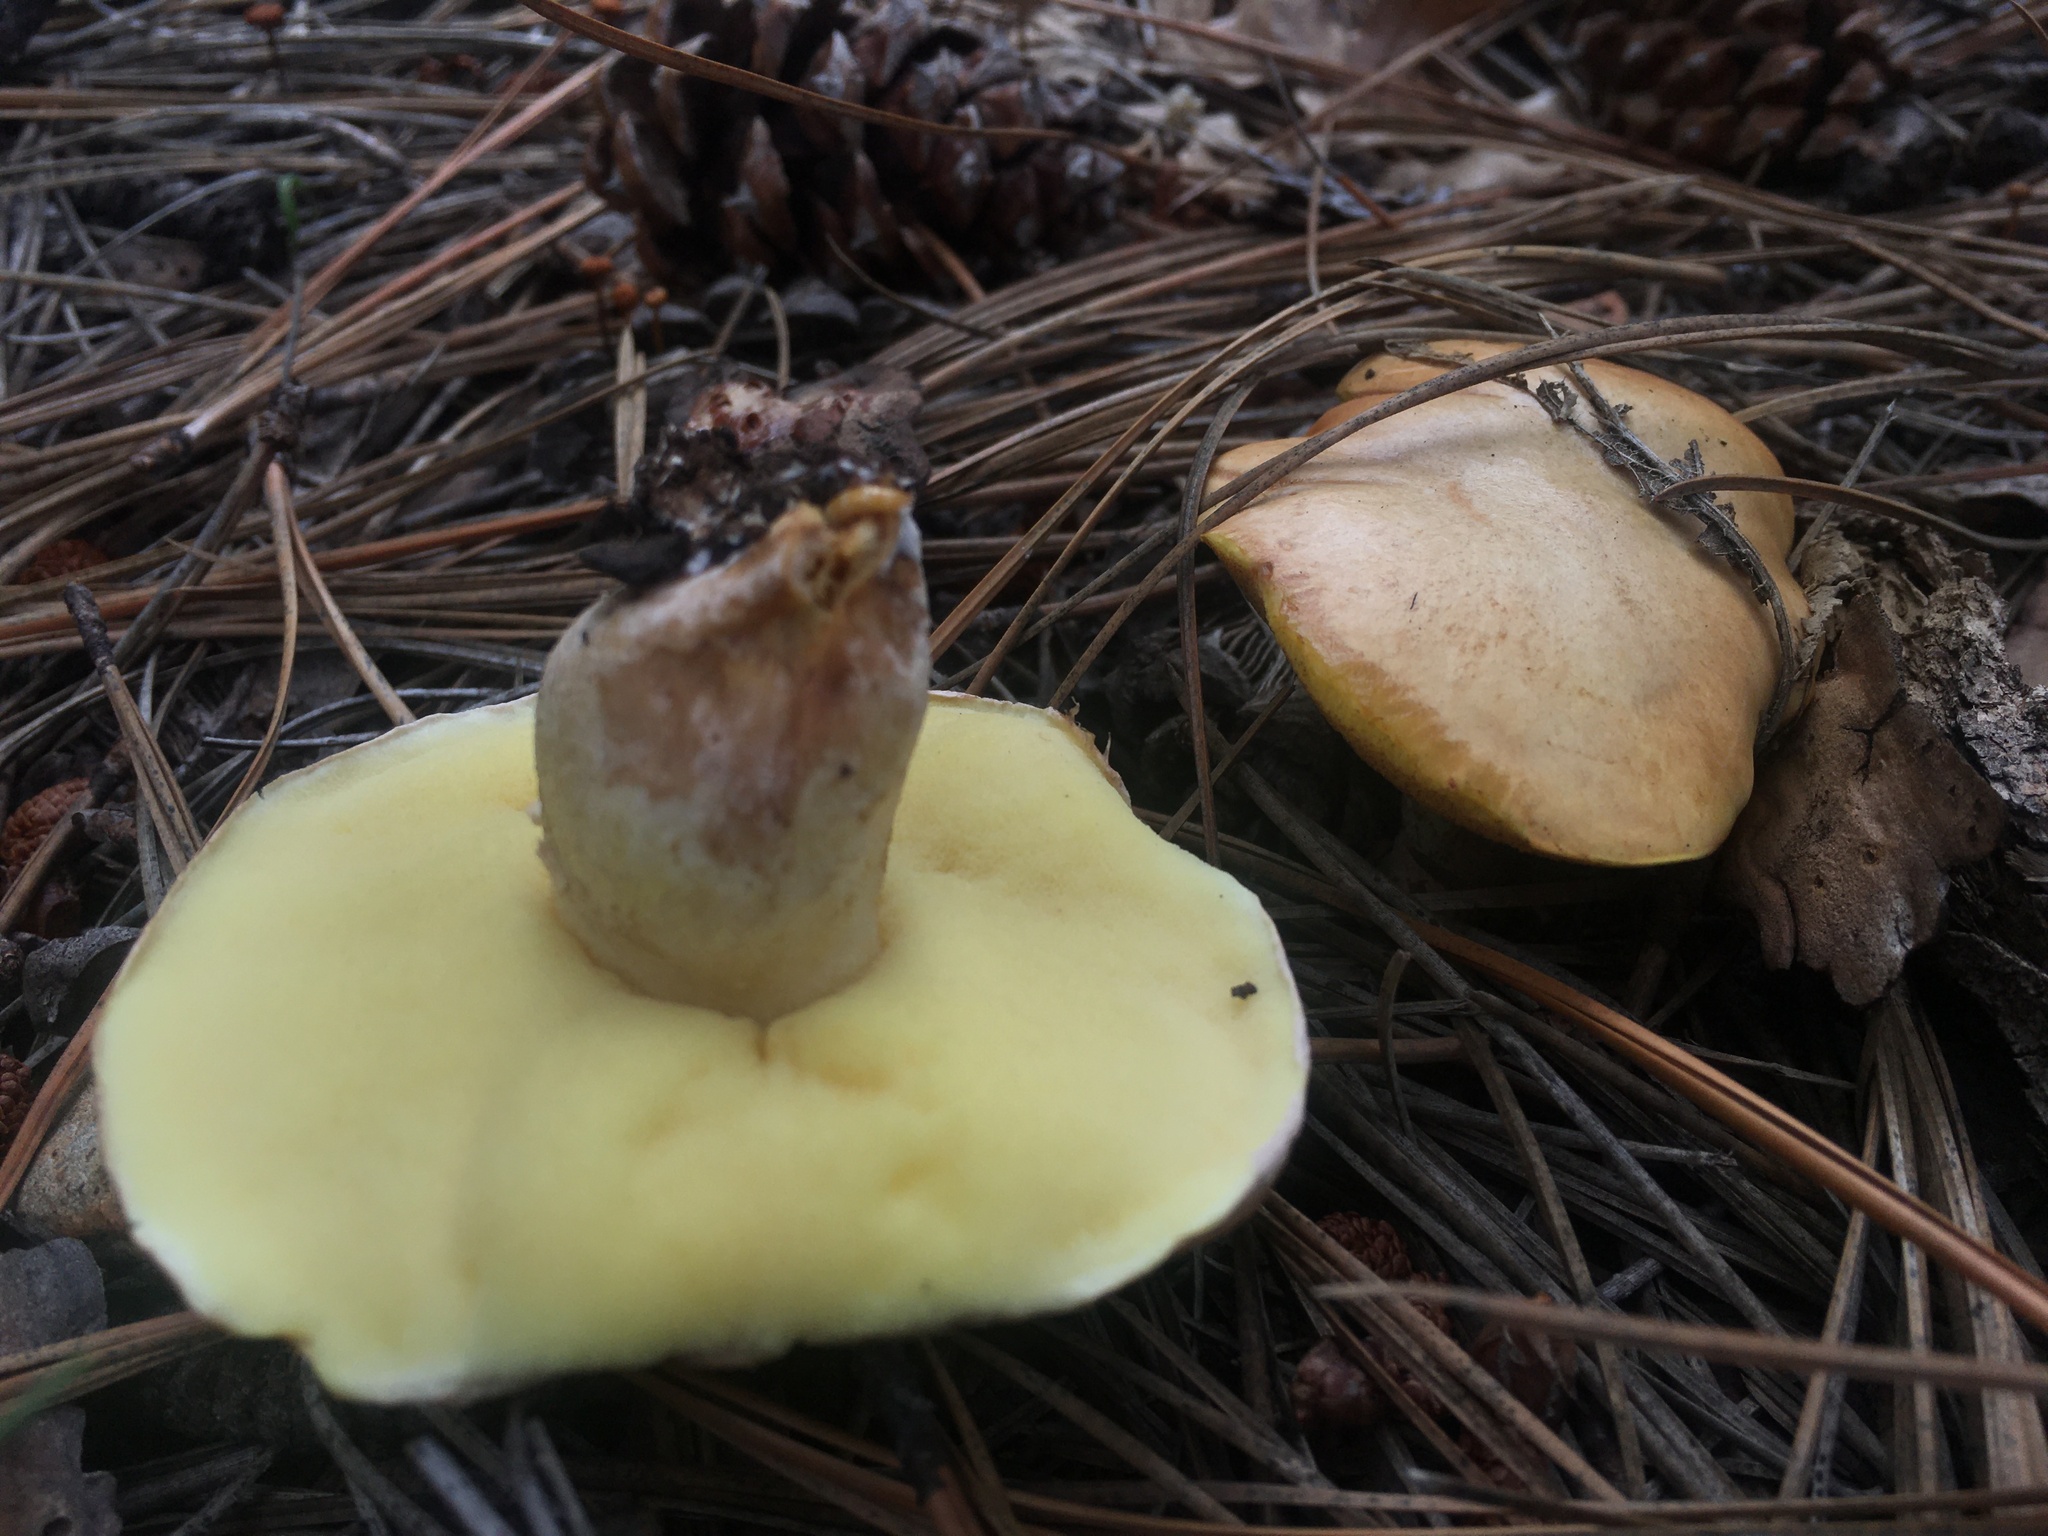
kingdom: Fungi
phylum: Basidiomycota
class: Agaricomycetes
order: Boletales
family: Suillaceae
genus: Suillus
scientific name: Suillus occidentalis
